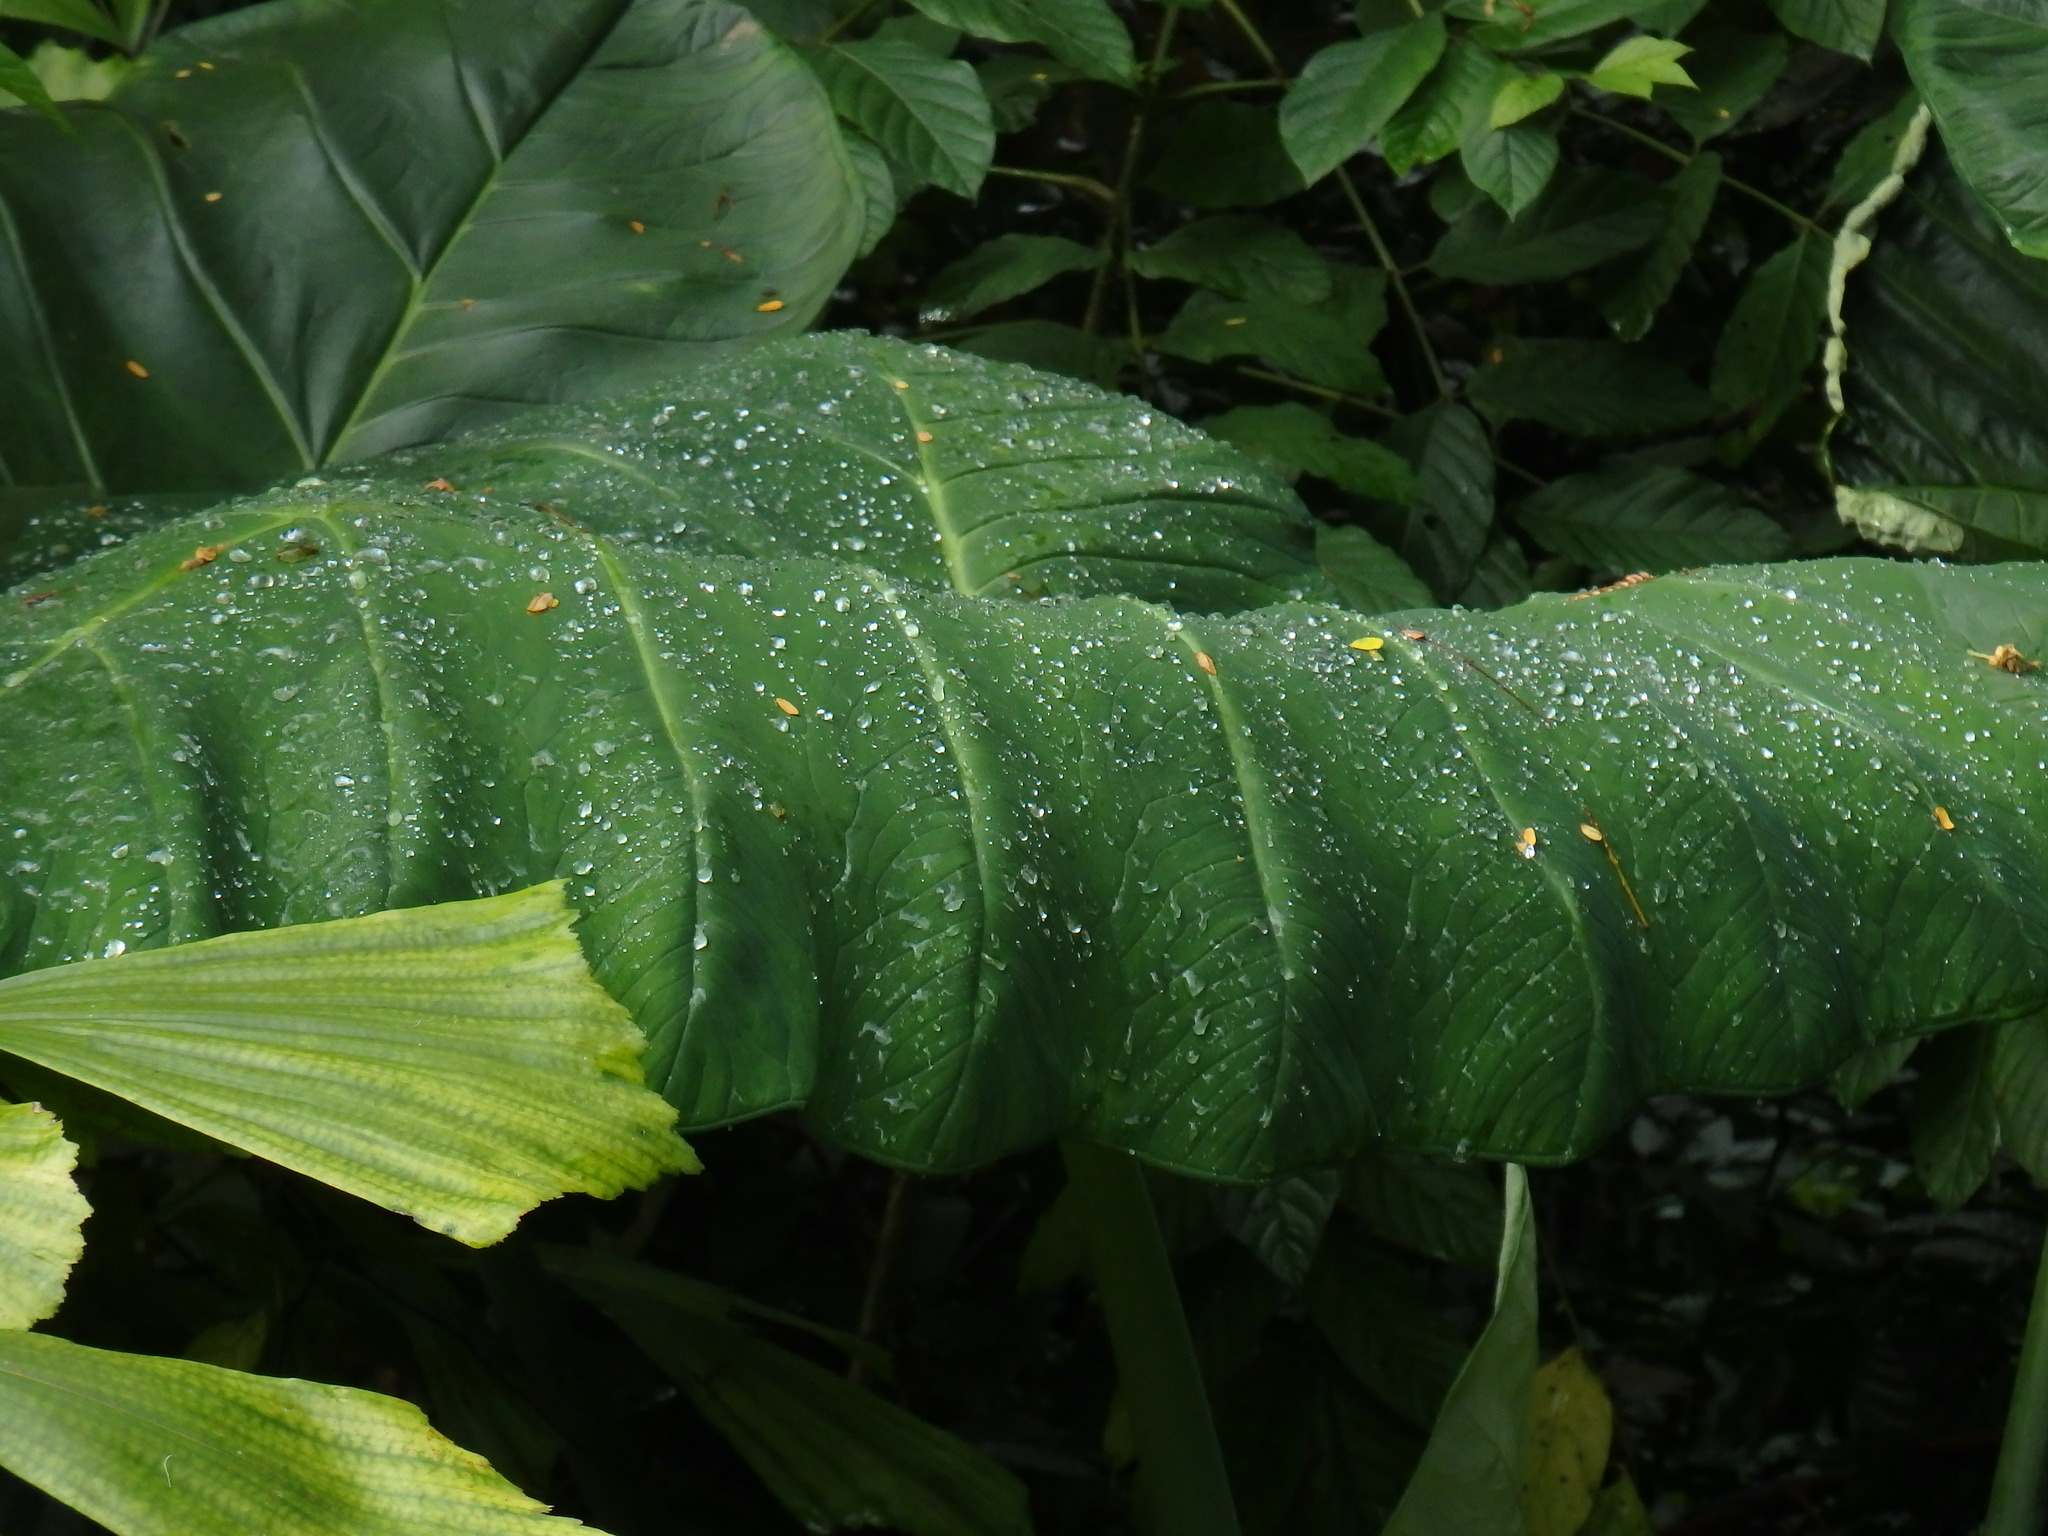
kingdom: Plantae
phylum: Tracheophyta
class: Liliopsida
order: Alismatales
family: Araceae
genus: Alocasia
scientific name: Alocasia macrorrhizos
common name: Giant taro
